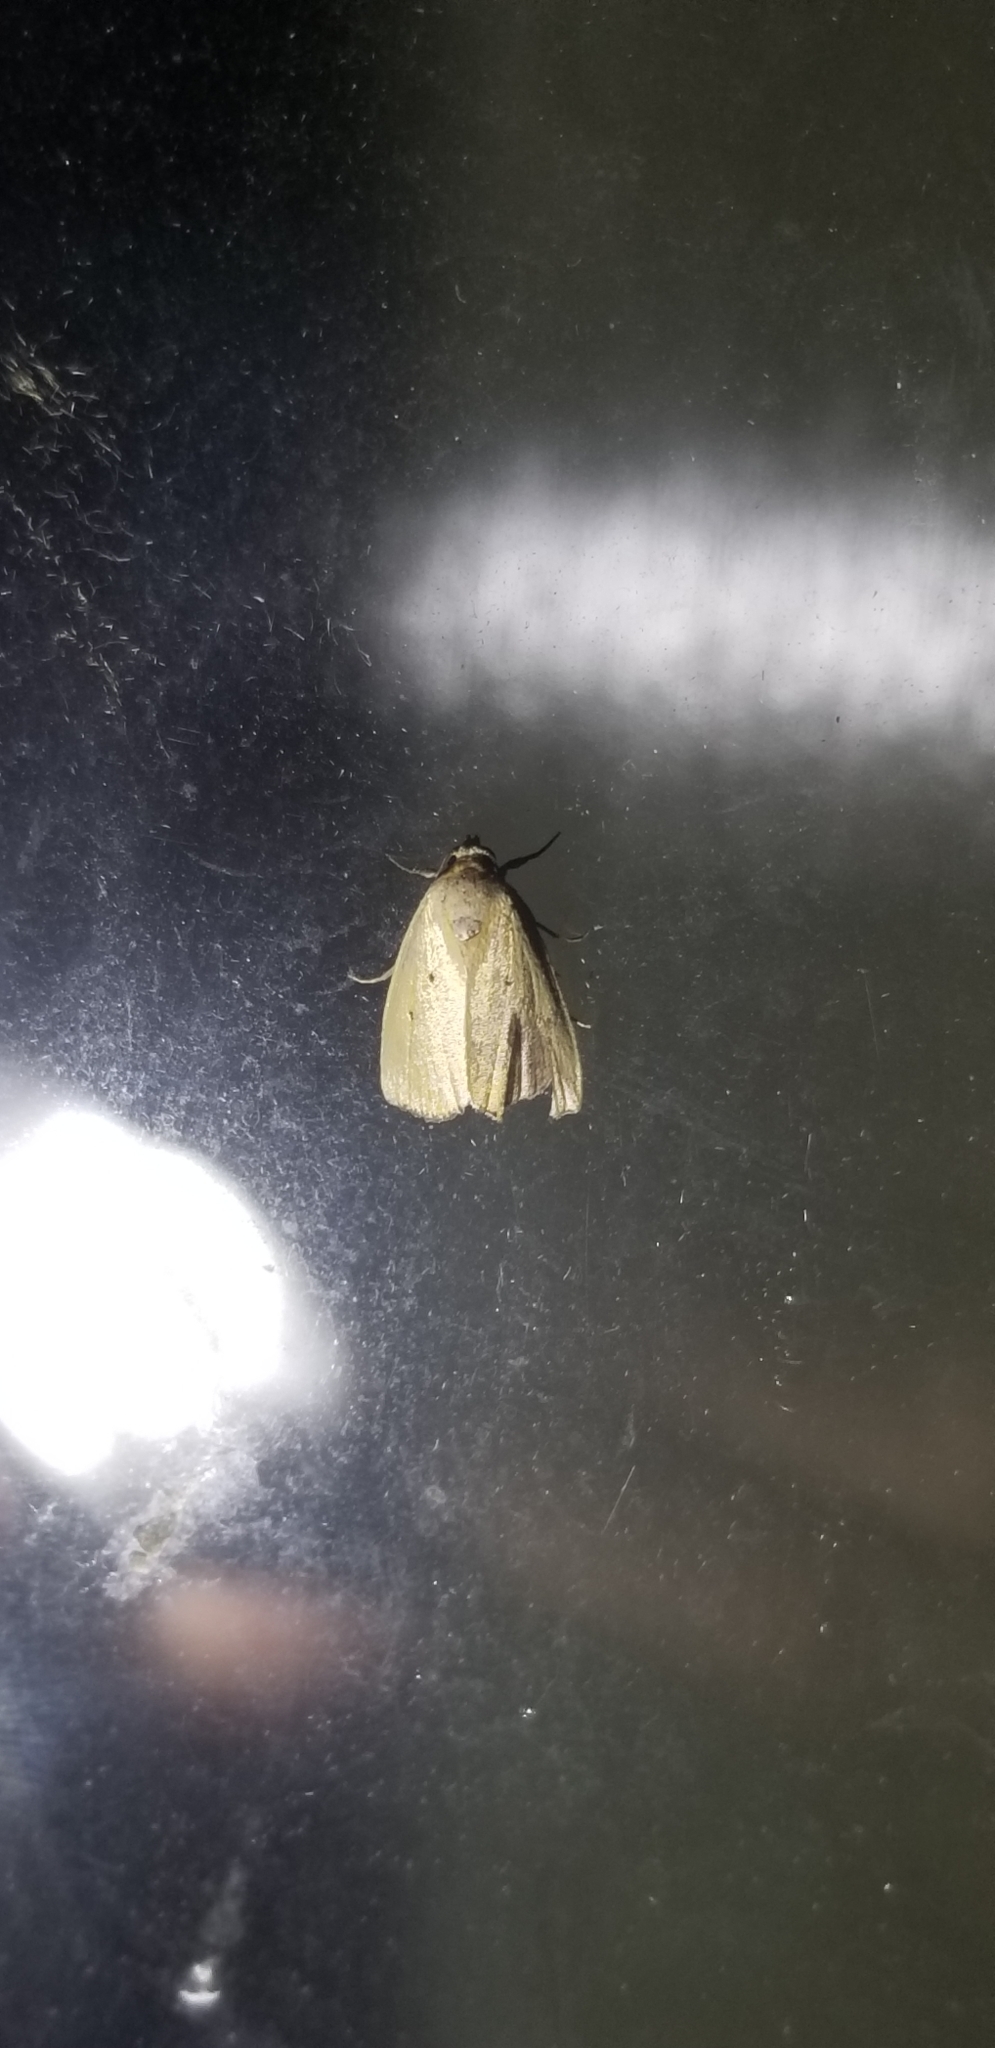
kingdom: Animalia
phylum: Arthropoda
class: Insecta
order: Lepidoptera
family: Noctuidae
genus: Marimatha
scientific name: Marimatha nigrofimbria
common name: Black-bordered lemon moth
